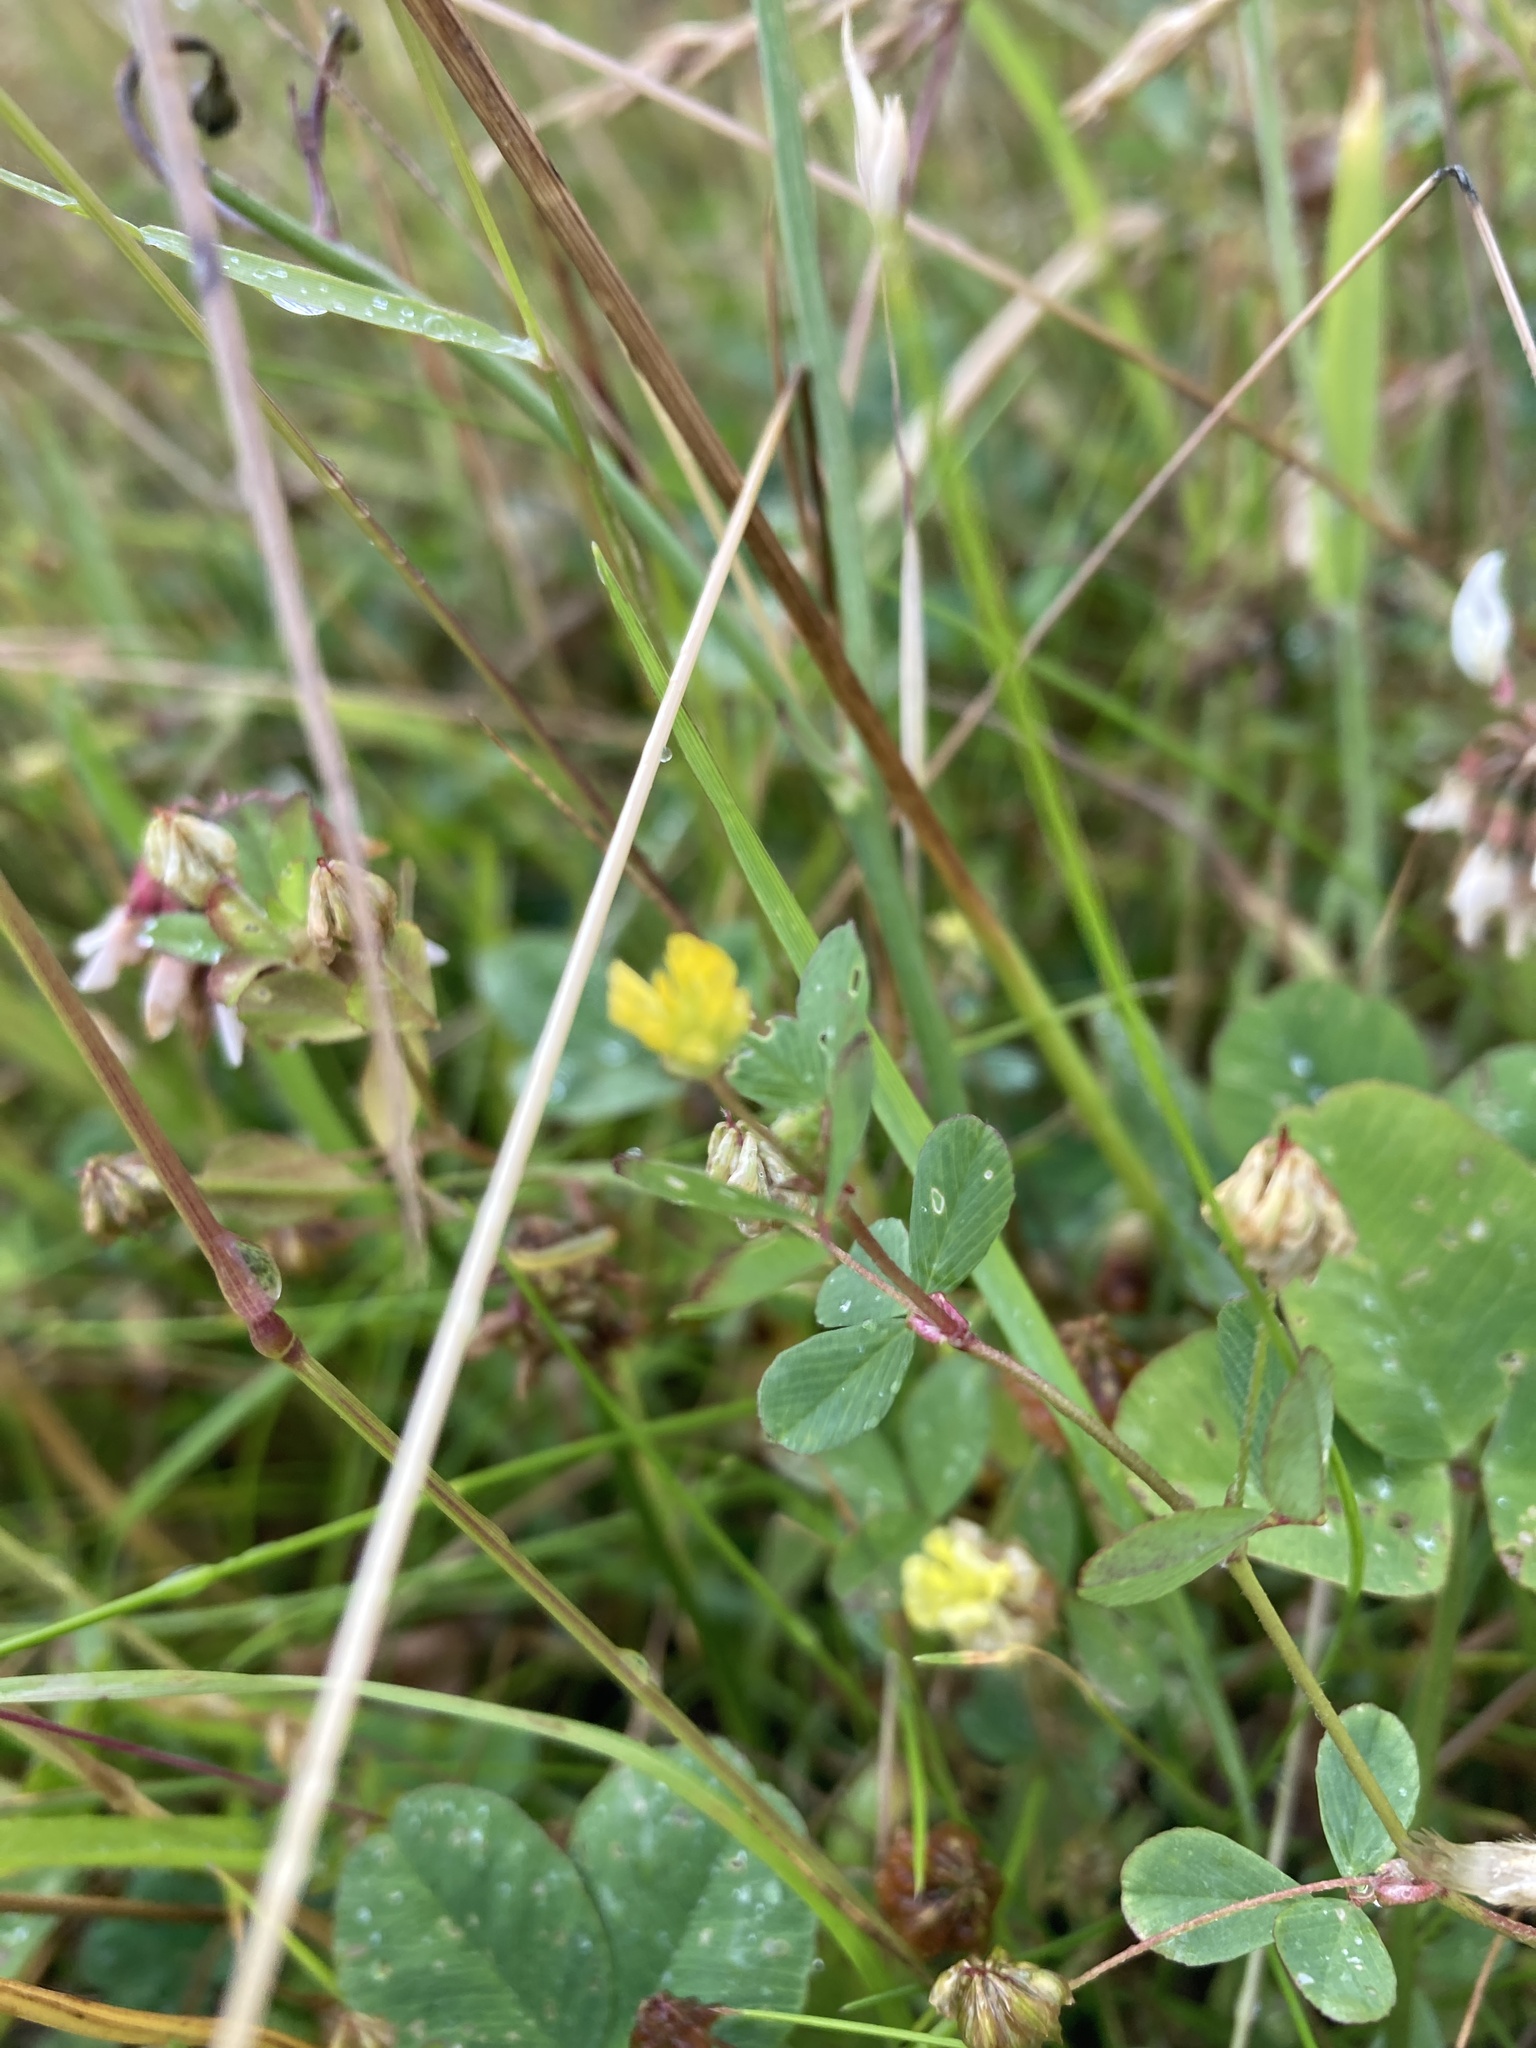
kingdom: Plantae
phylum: Tracheophyta
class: Magnoliopsida
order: Fabales
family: Fabaceae
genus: Trifolium
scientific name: Trifolium dubium
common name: Suckling clover
